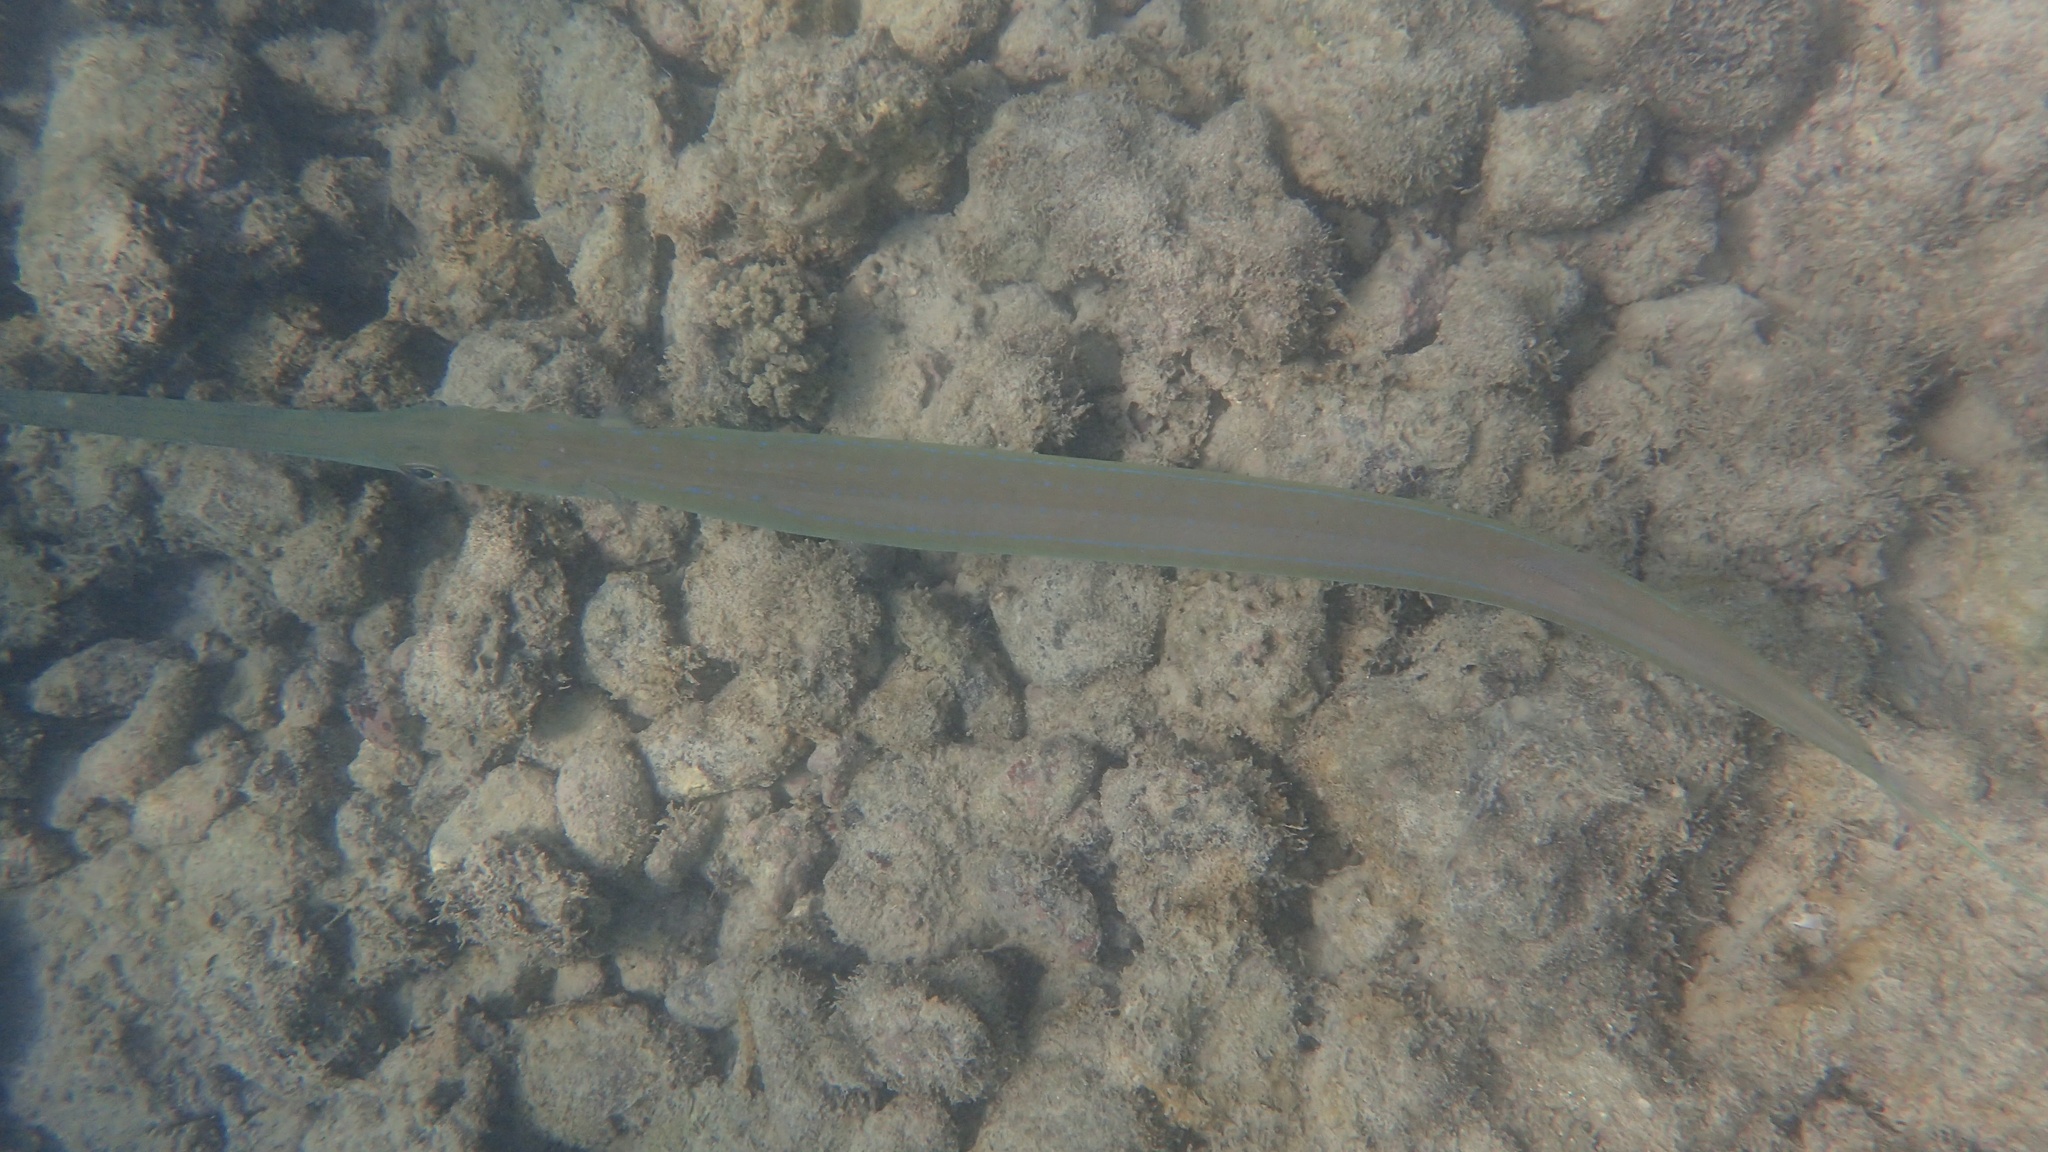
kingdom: Animalia
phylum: Chordata
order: Syngnathiformes
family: Fistulariidae
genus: Fistularia
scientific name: Fistularia commersonii
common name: Bluespotted cornetfish
